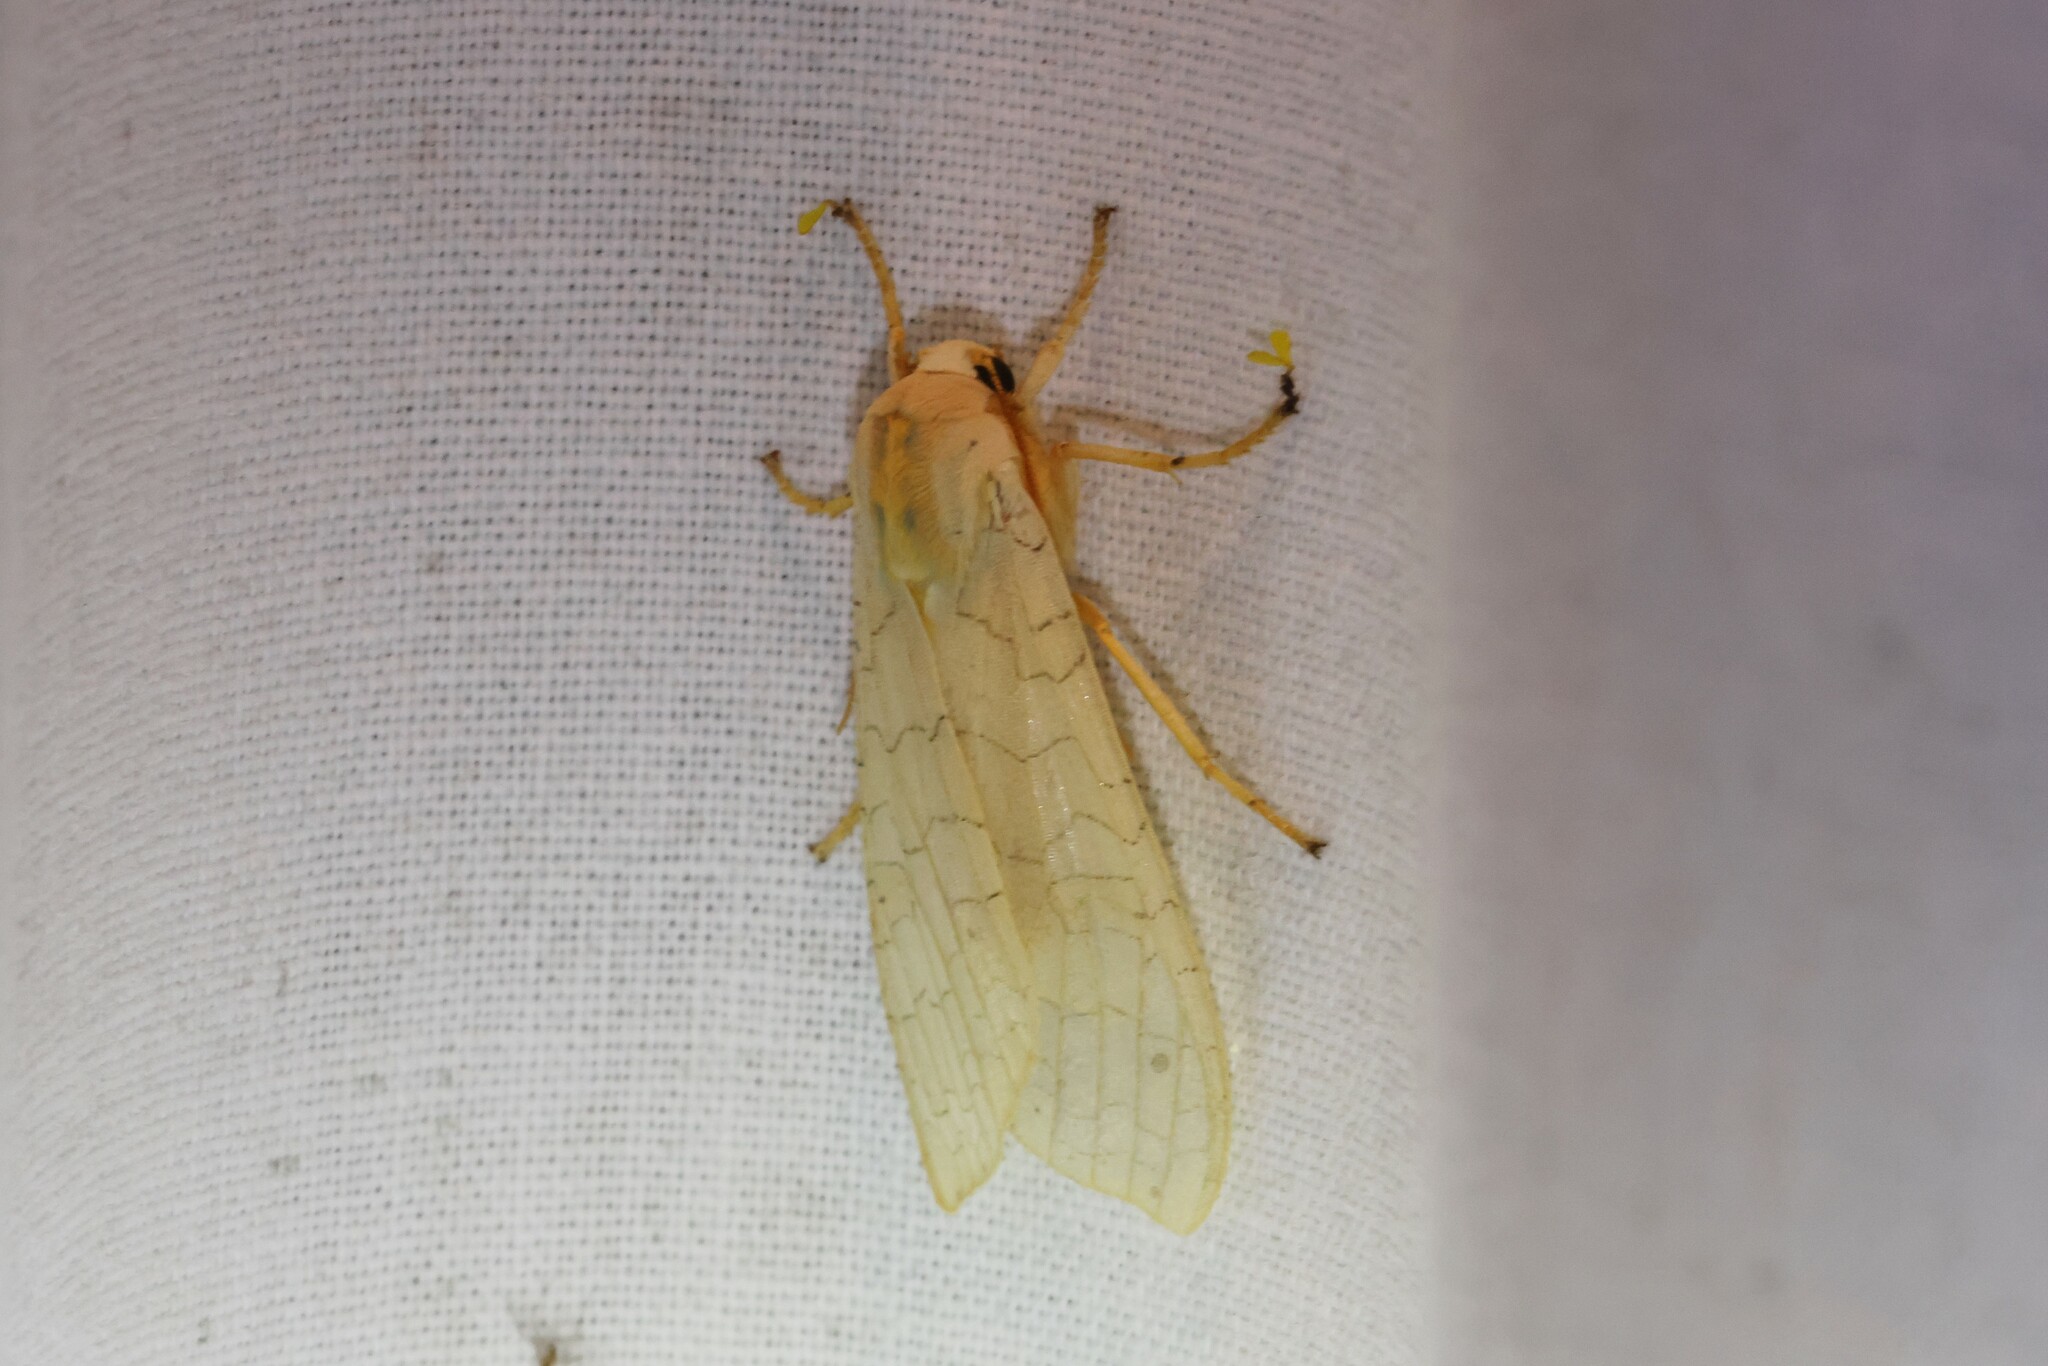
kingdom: Animalia
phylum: Arthropoda
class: Insecta
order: Lepidoptera
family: Erebidae
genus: Halysidota
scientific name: Halysidota tessellaris
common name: Banded tussock moth
